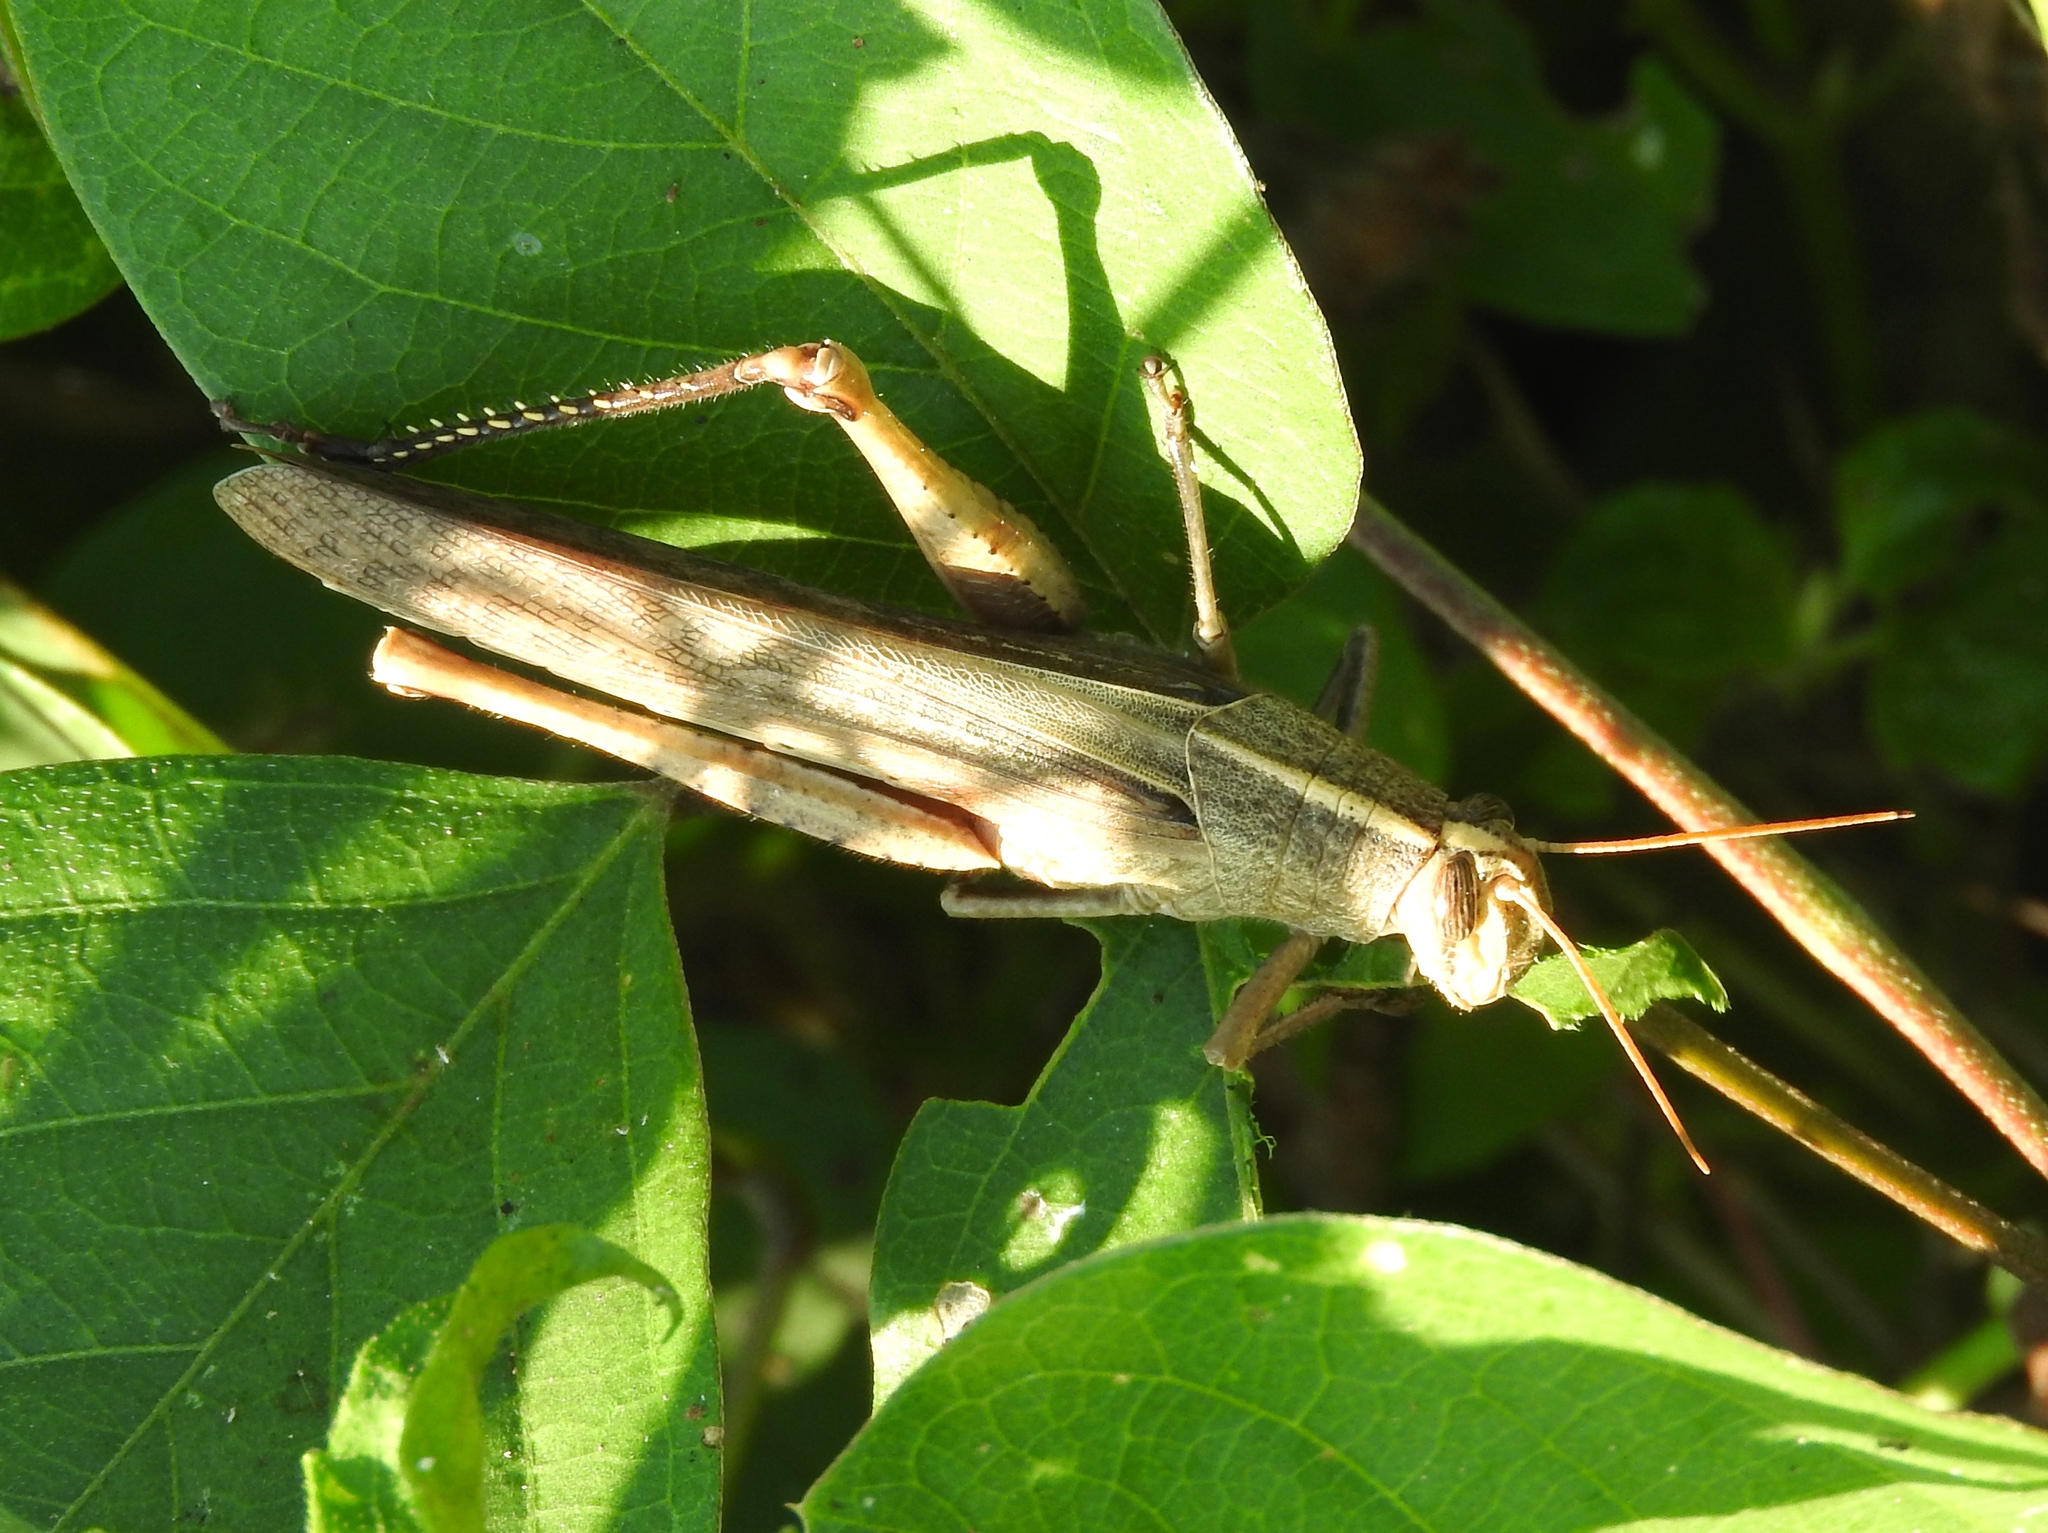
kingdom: Animalia
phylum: Arthropoda
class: Insecta
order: Orthoptera
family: Acrididae
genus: Schistocerca
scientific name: Schistocerca camerata
